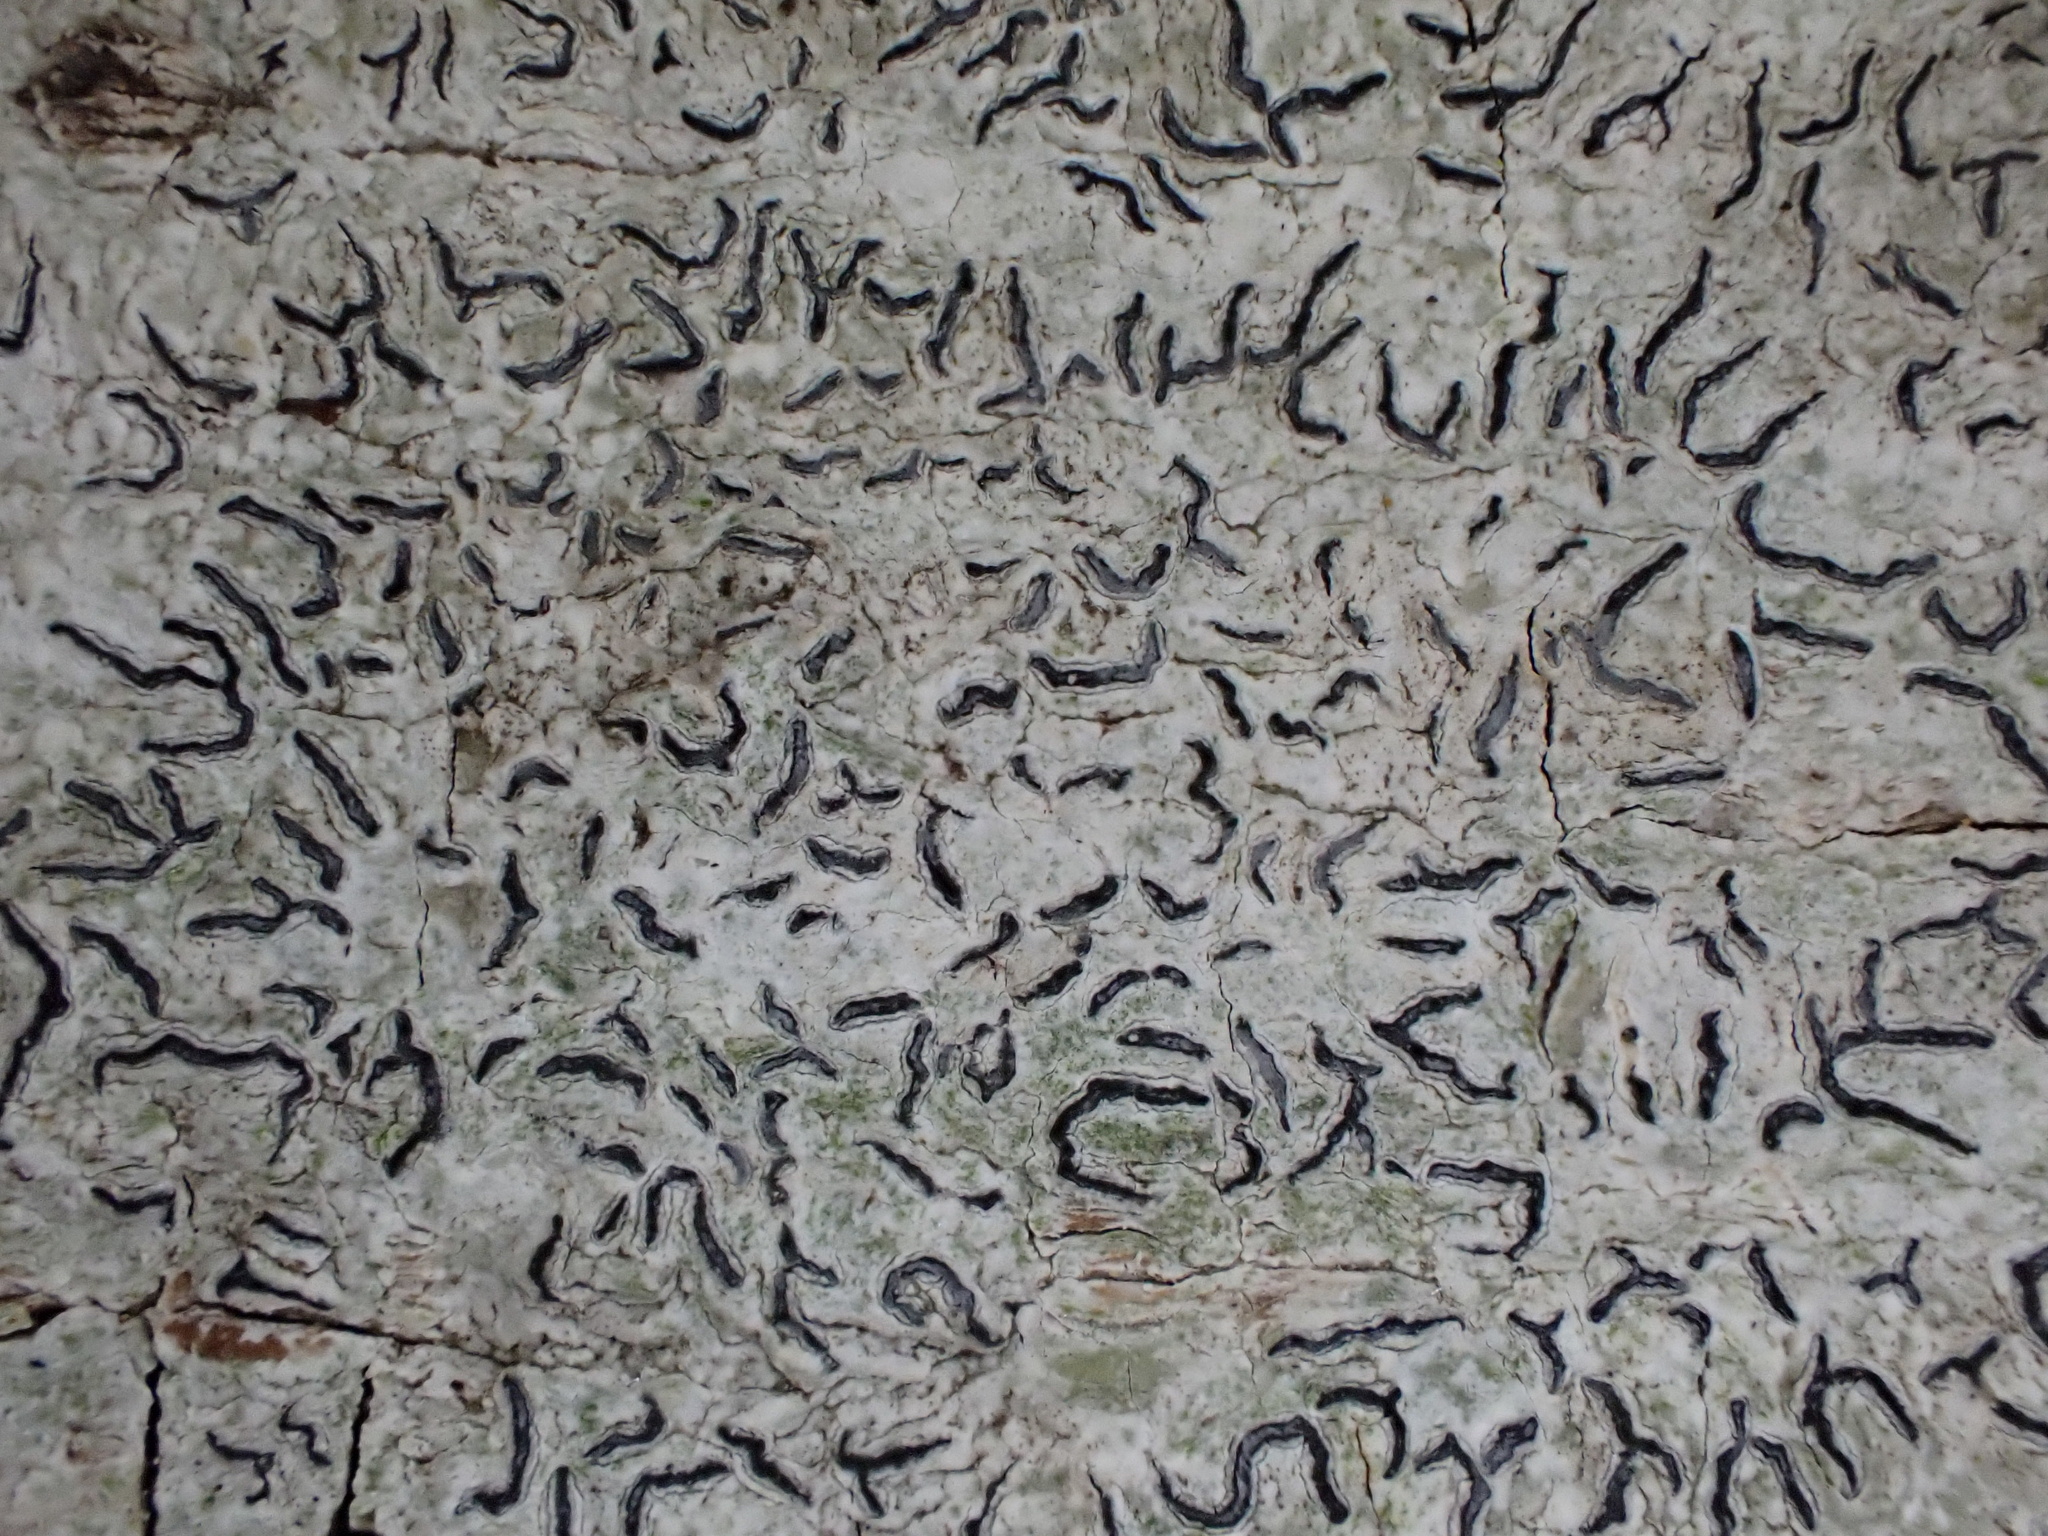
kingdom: Fungi
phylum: Ascomycota
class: Lecanoromycetes
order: Ostropales
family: Graphidaceae
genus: Graphis
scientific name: Graphis scripta
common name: Script lichen
